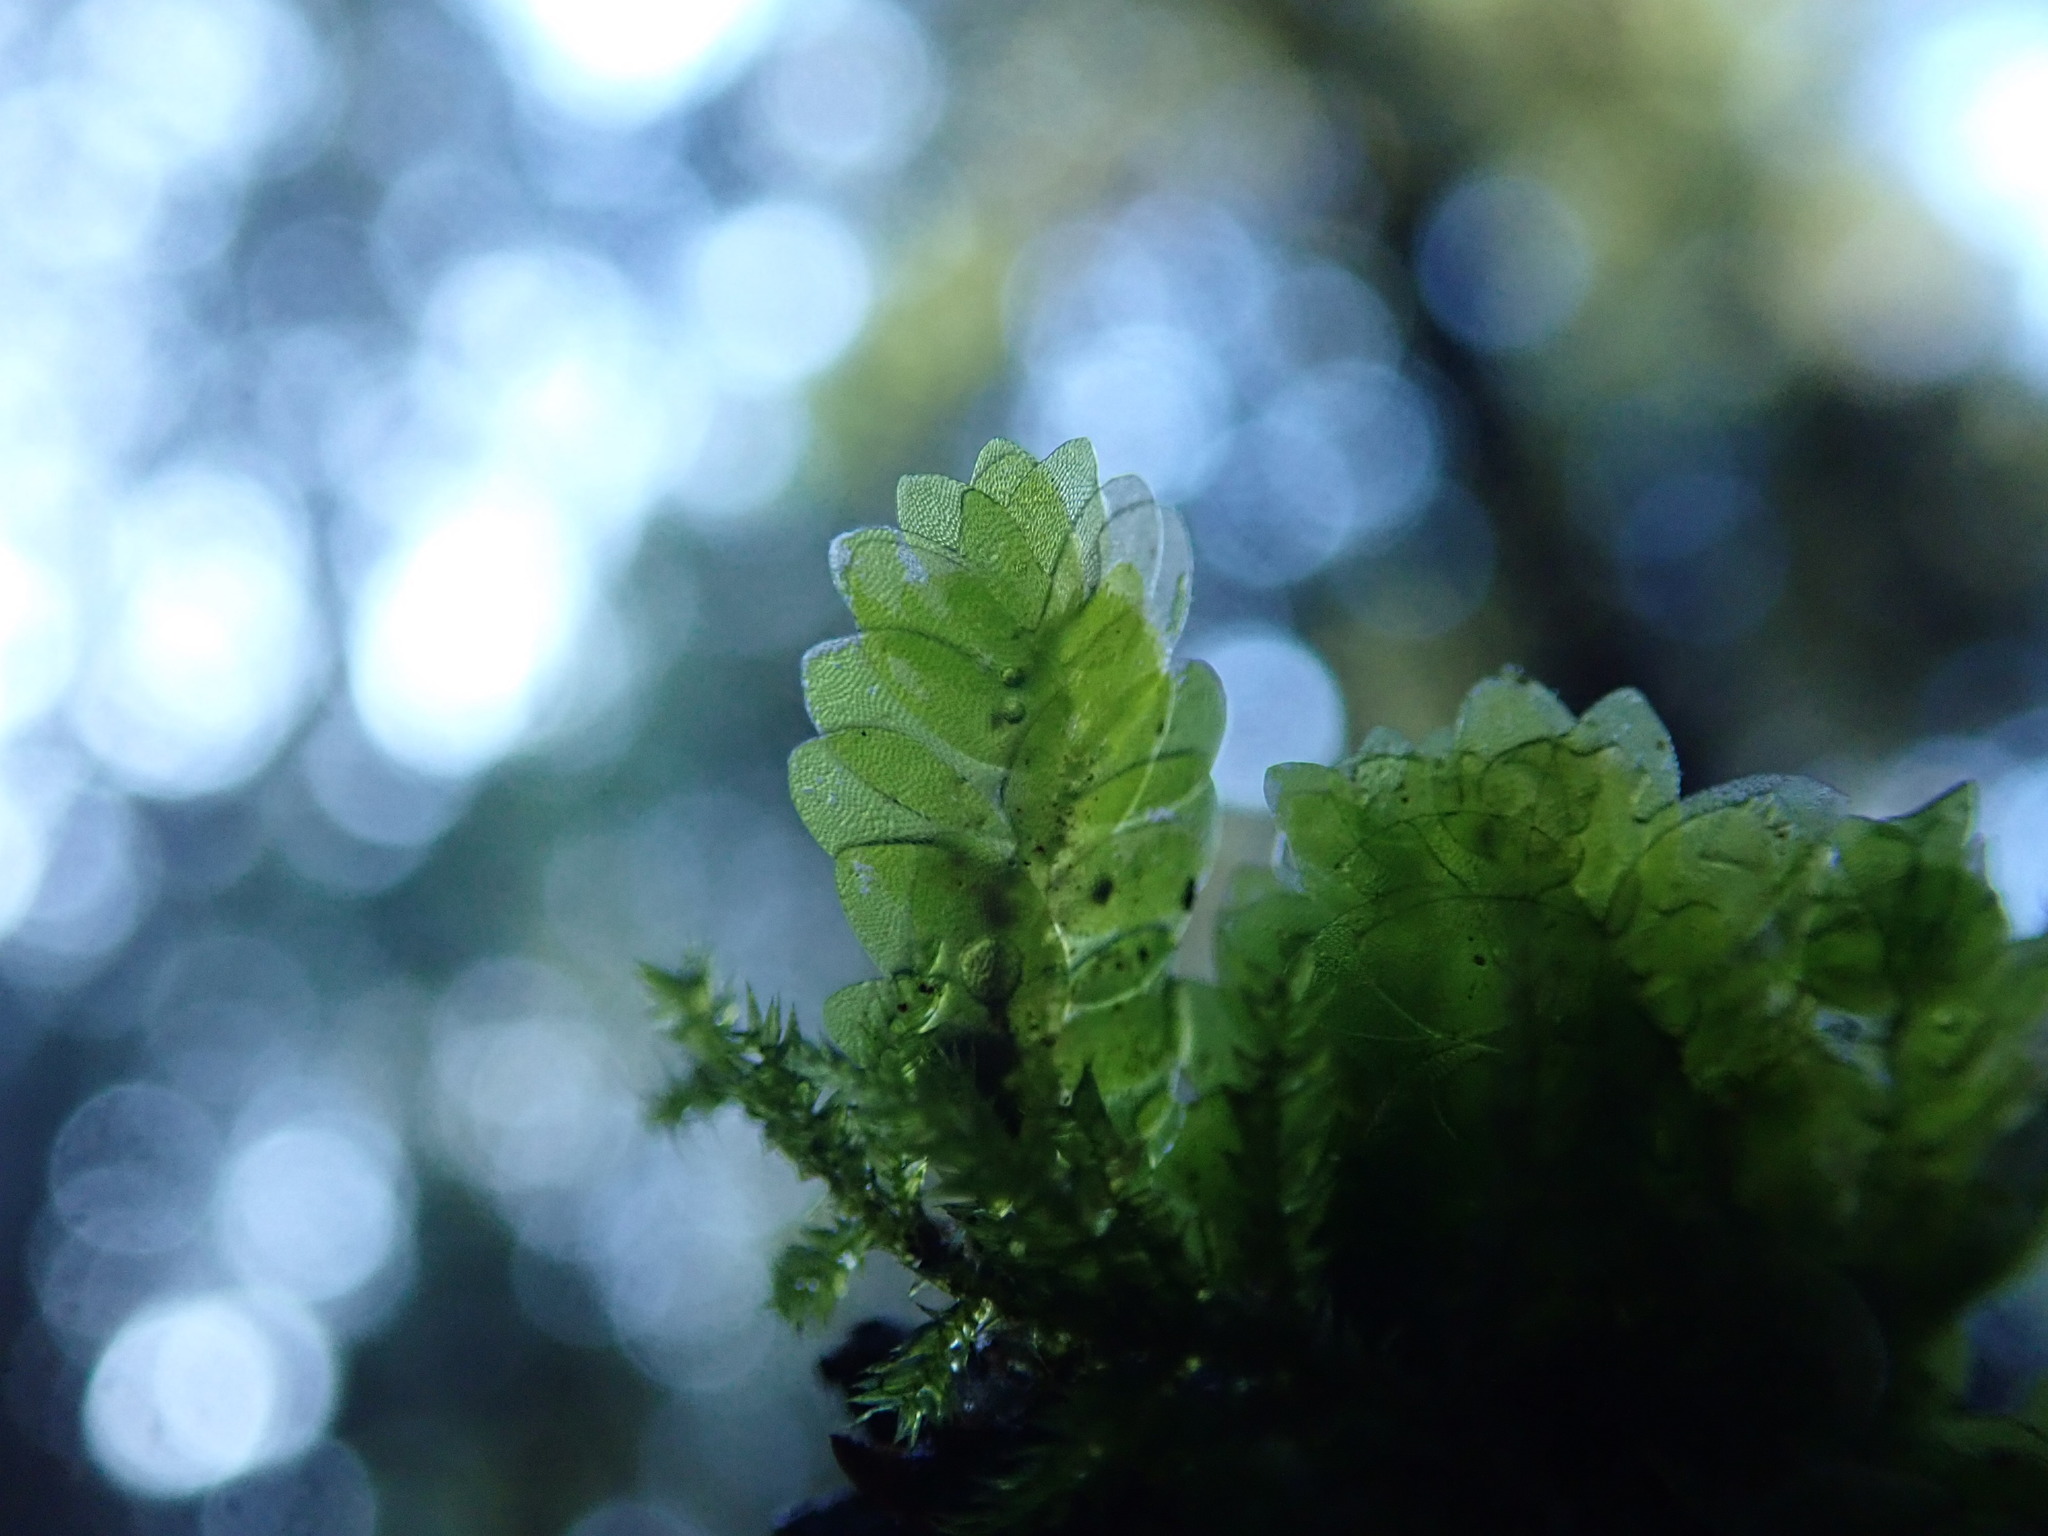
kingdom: Plantae
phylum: Bryophyta
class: Bryopsida
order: Hookeriales
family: Hookeriaceae
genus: Hookeria
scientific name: Hookeria lucens
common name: Shining hookeria
